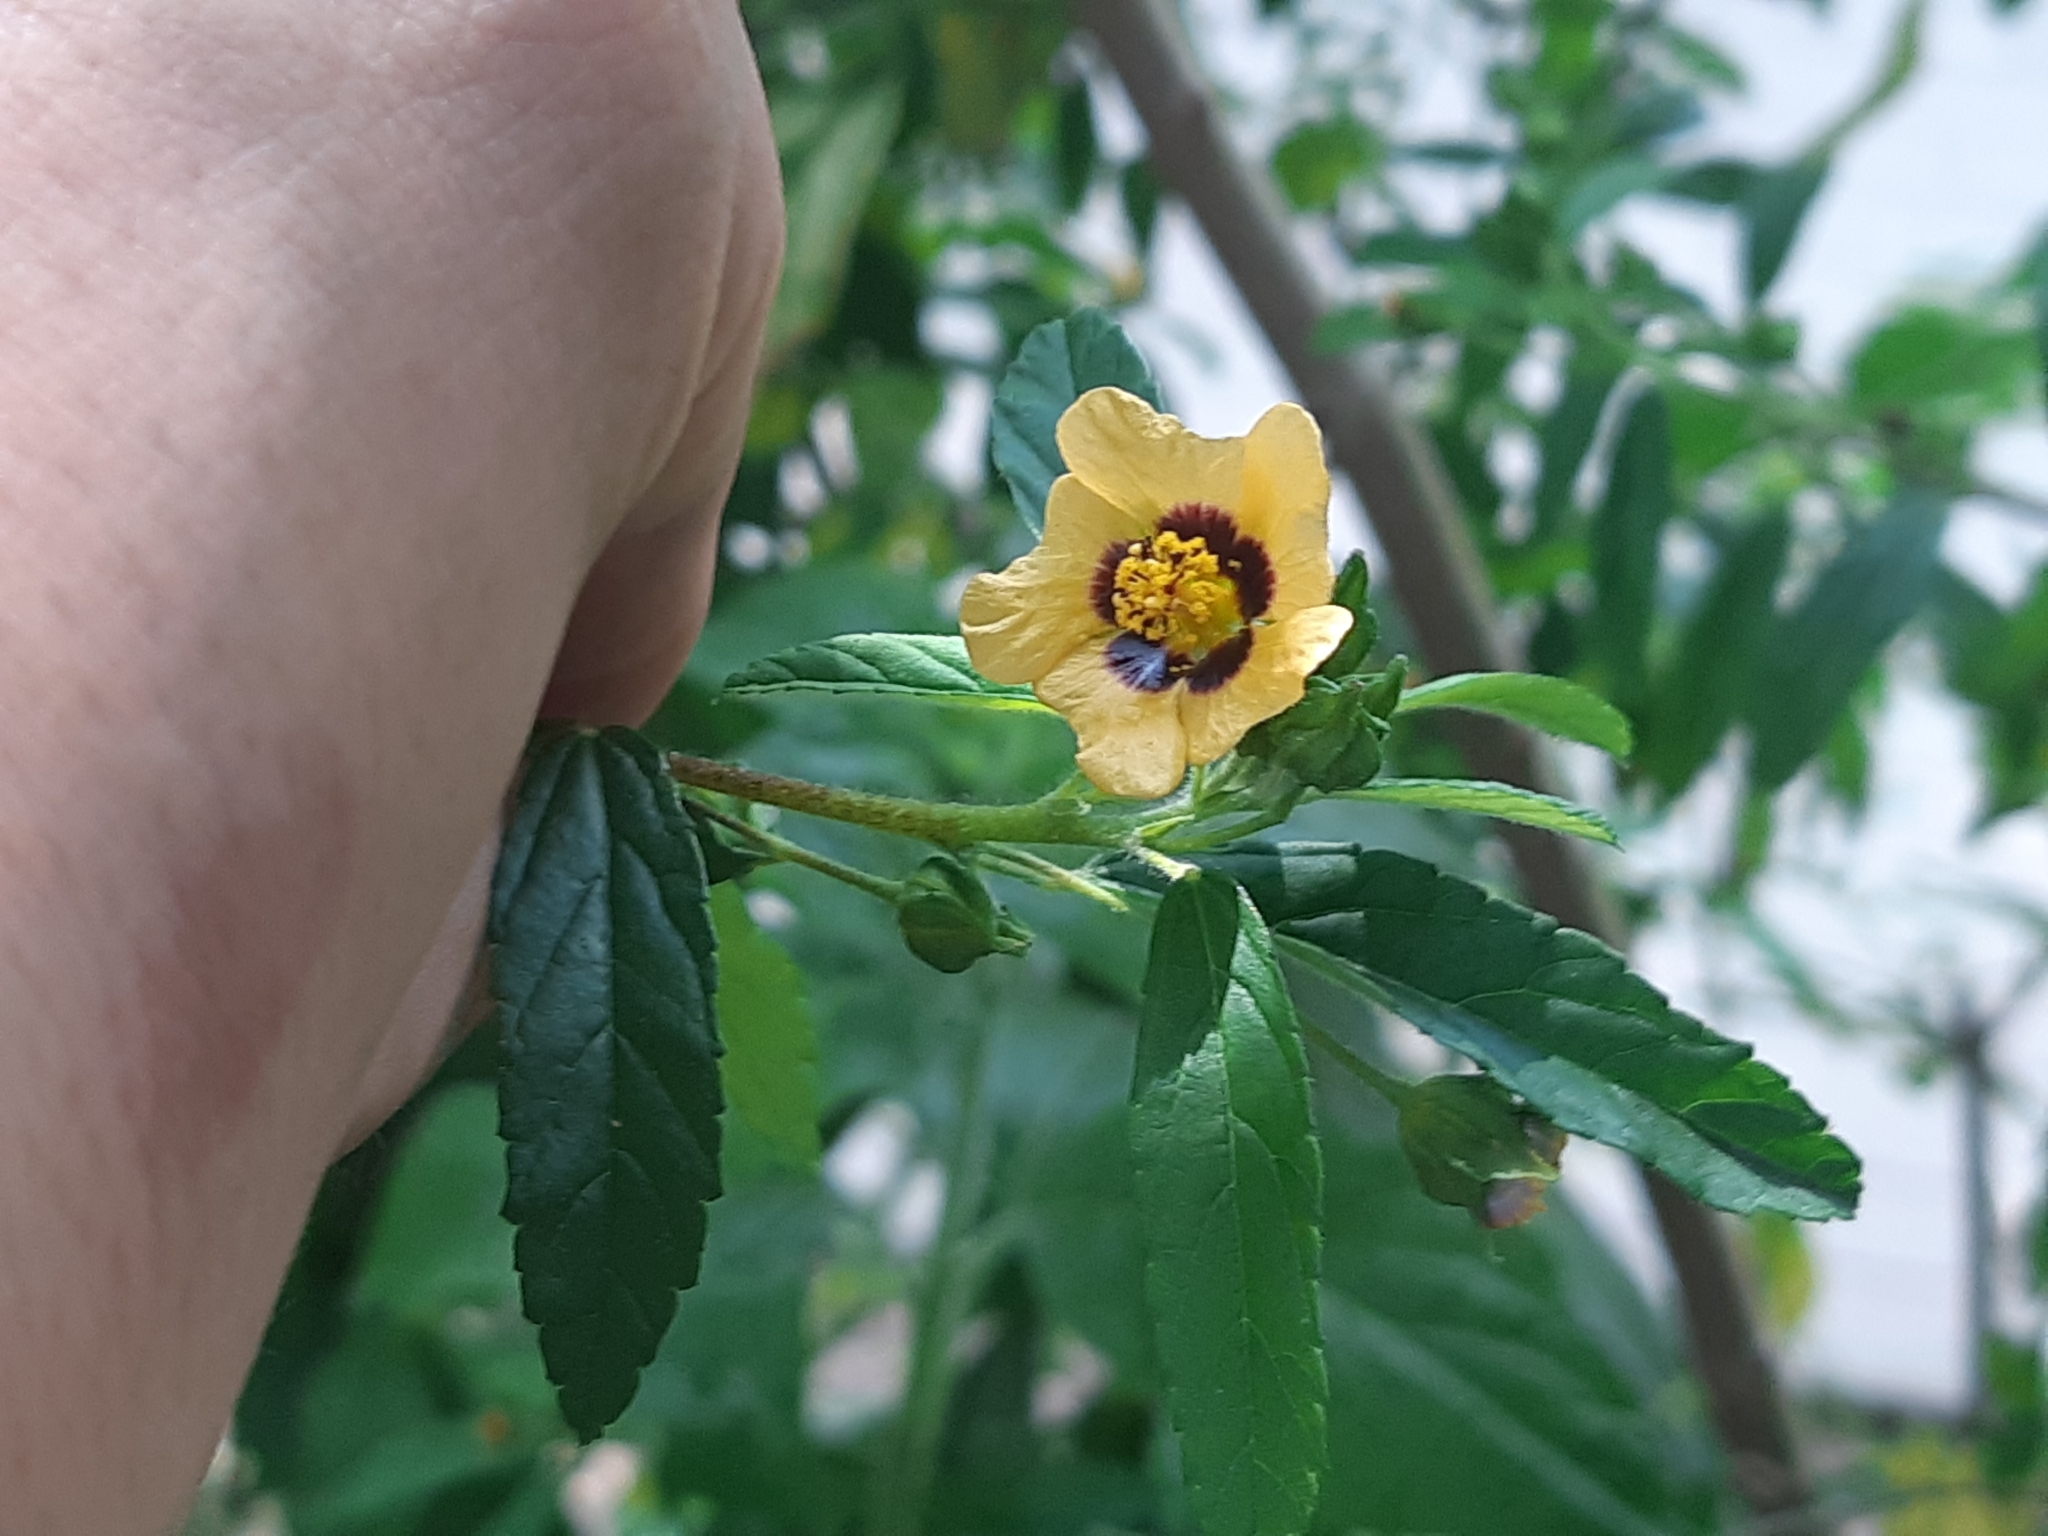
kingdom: Plantae
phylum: Tracheophyta
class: Magnoliopsida
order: Malvales
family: Malvaceae
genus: Sida
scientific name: Sida poeppigiana
